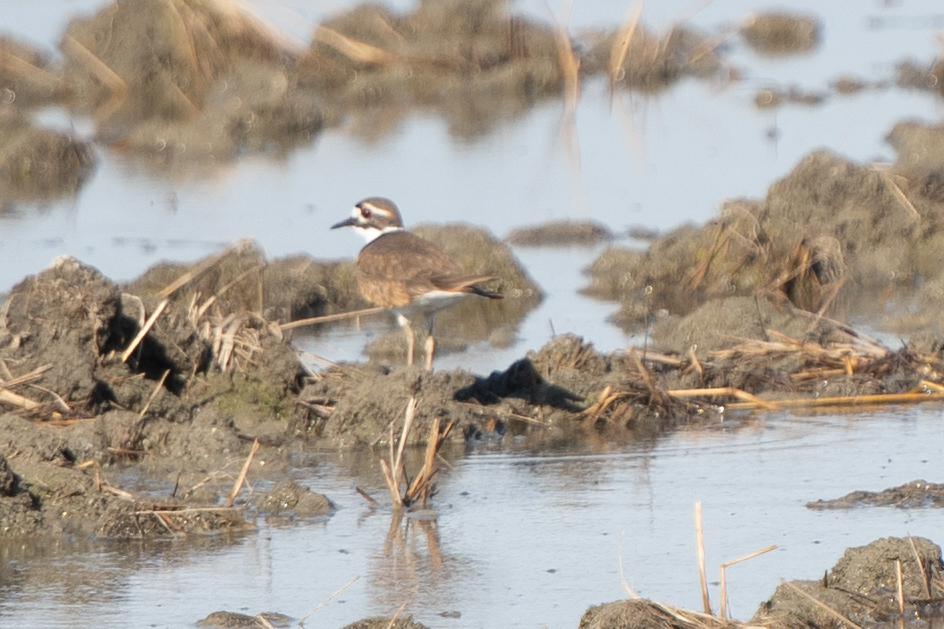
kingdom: Animalia
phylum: Chordata
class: Aves
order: Charadriiformes
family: Charadriidae
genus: Charadrius
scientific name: Charadrius vociferus
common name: Killdeer
